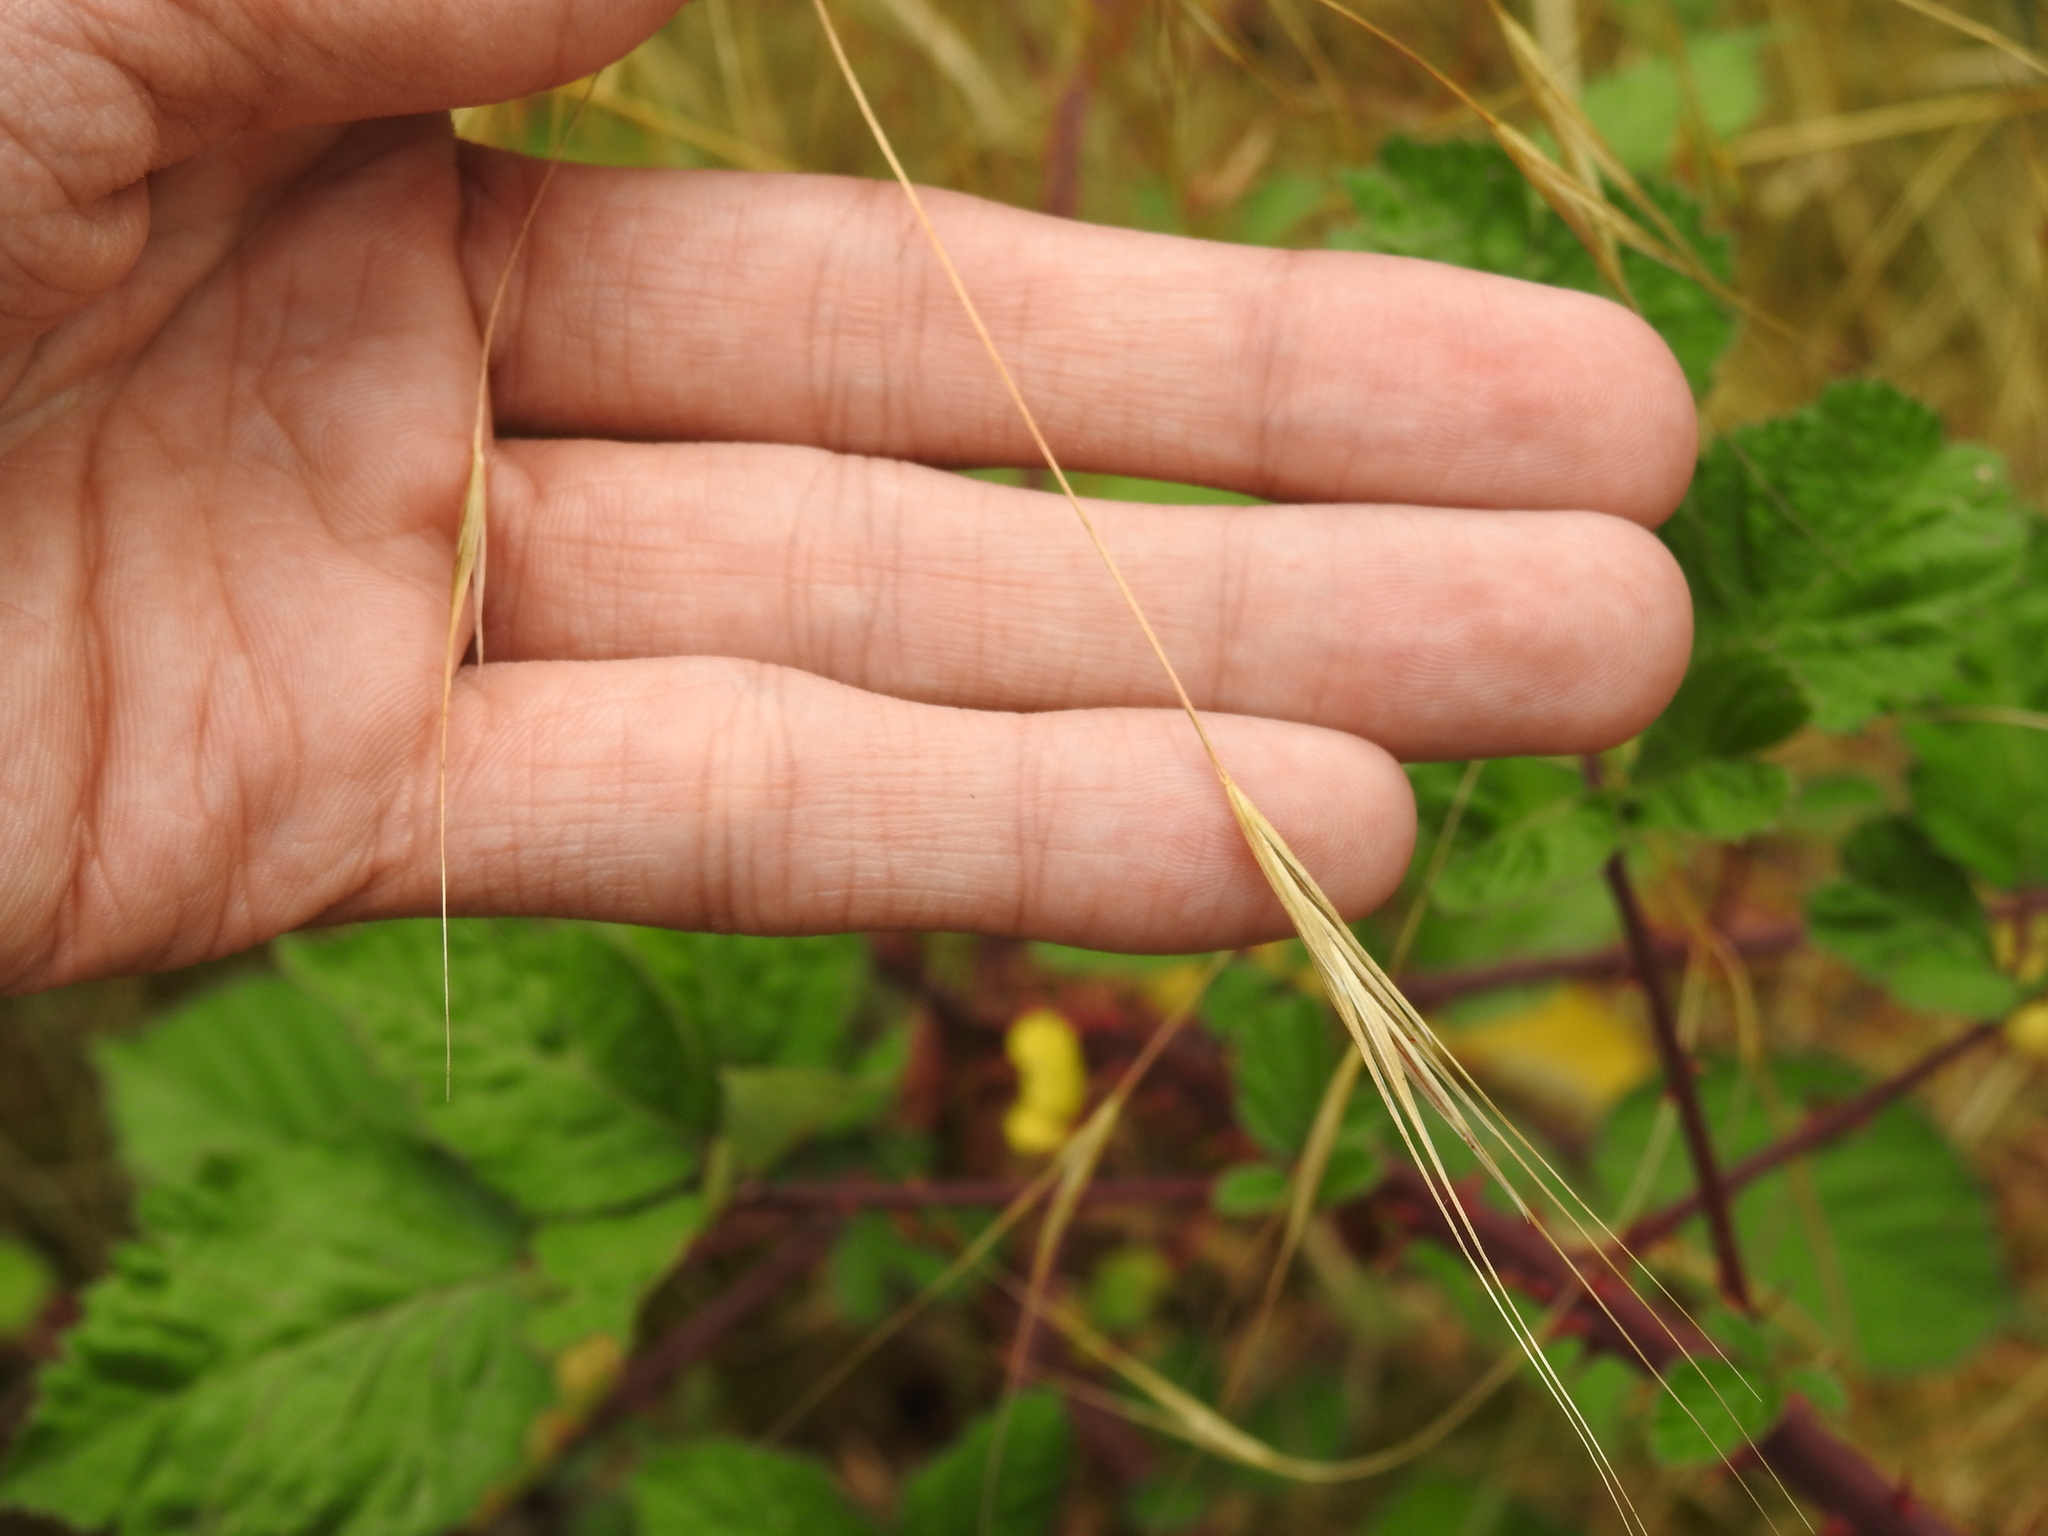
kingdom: Plantae
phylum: Tracheophyta
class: Liliopsida
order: Poales
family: Poaceae
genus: Bromus
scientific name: Bromus sterilis
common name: Poverty brome
